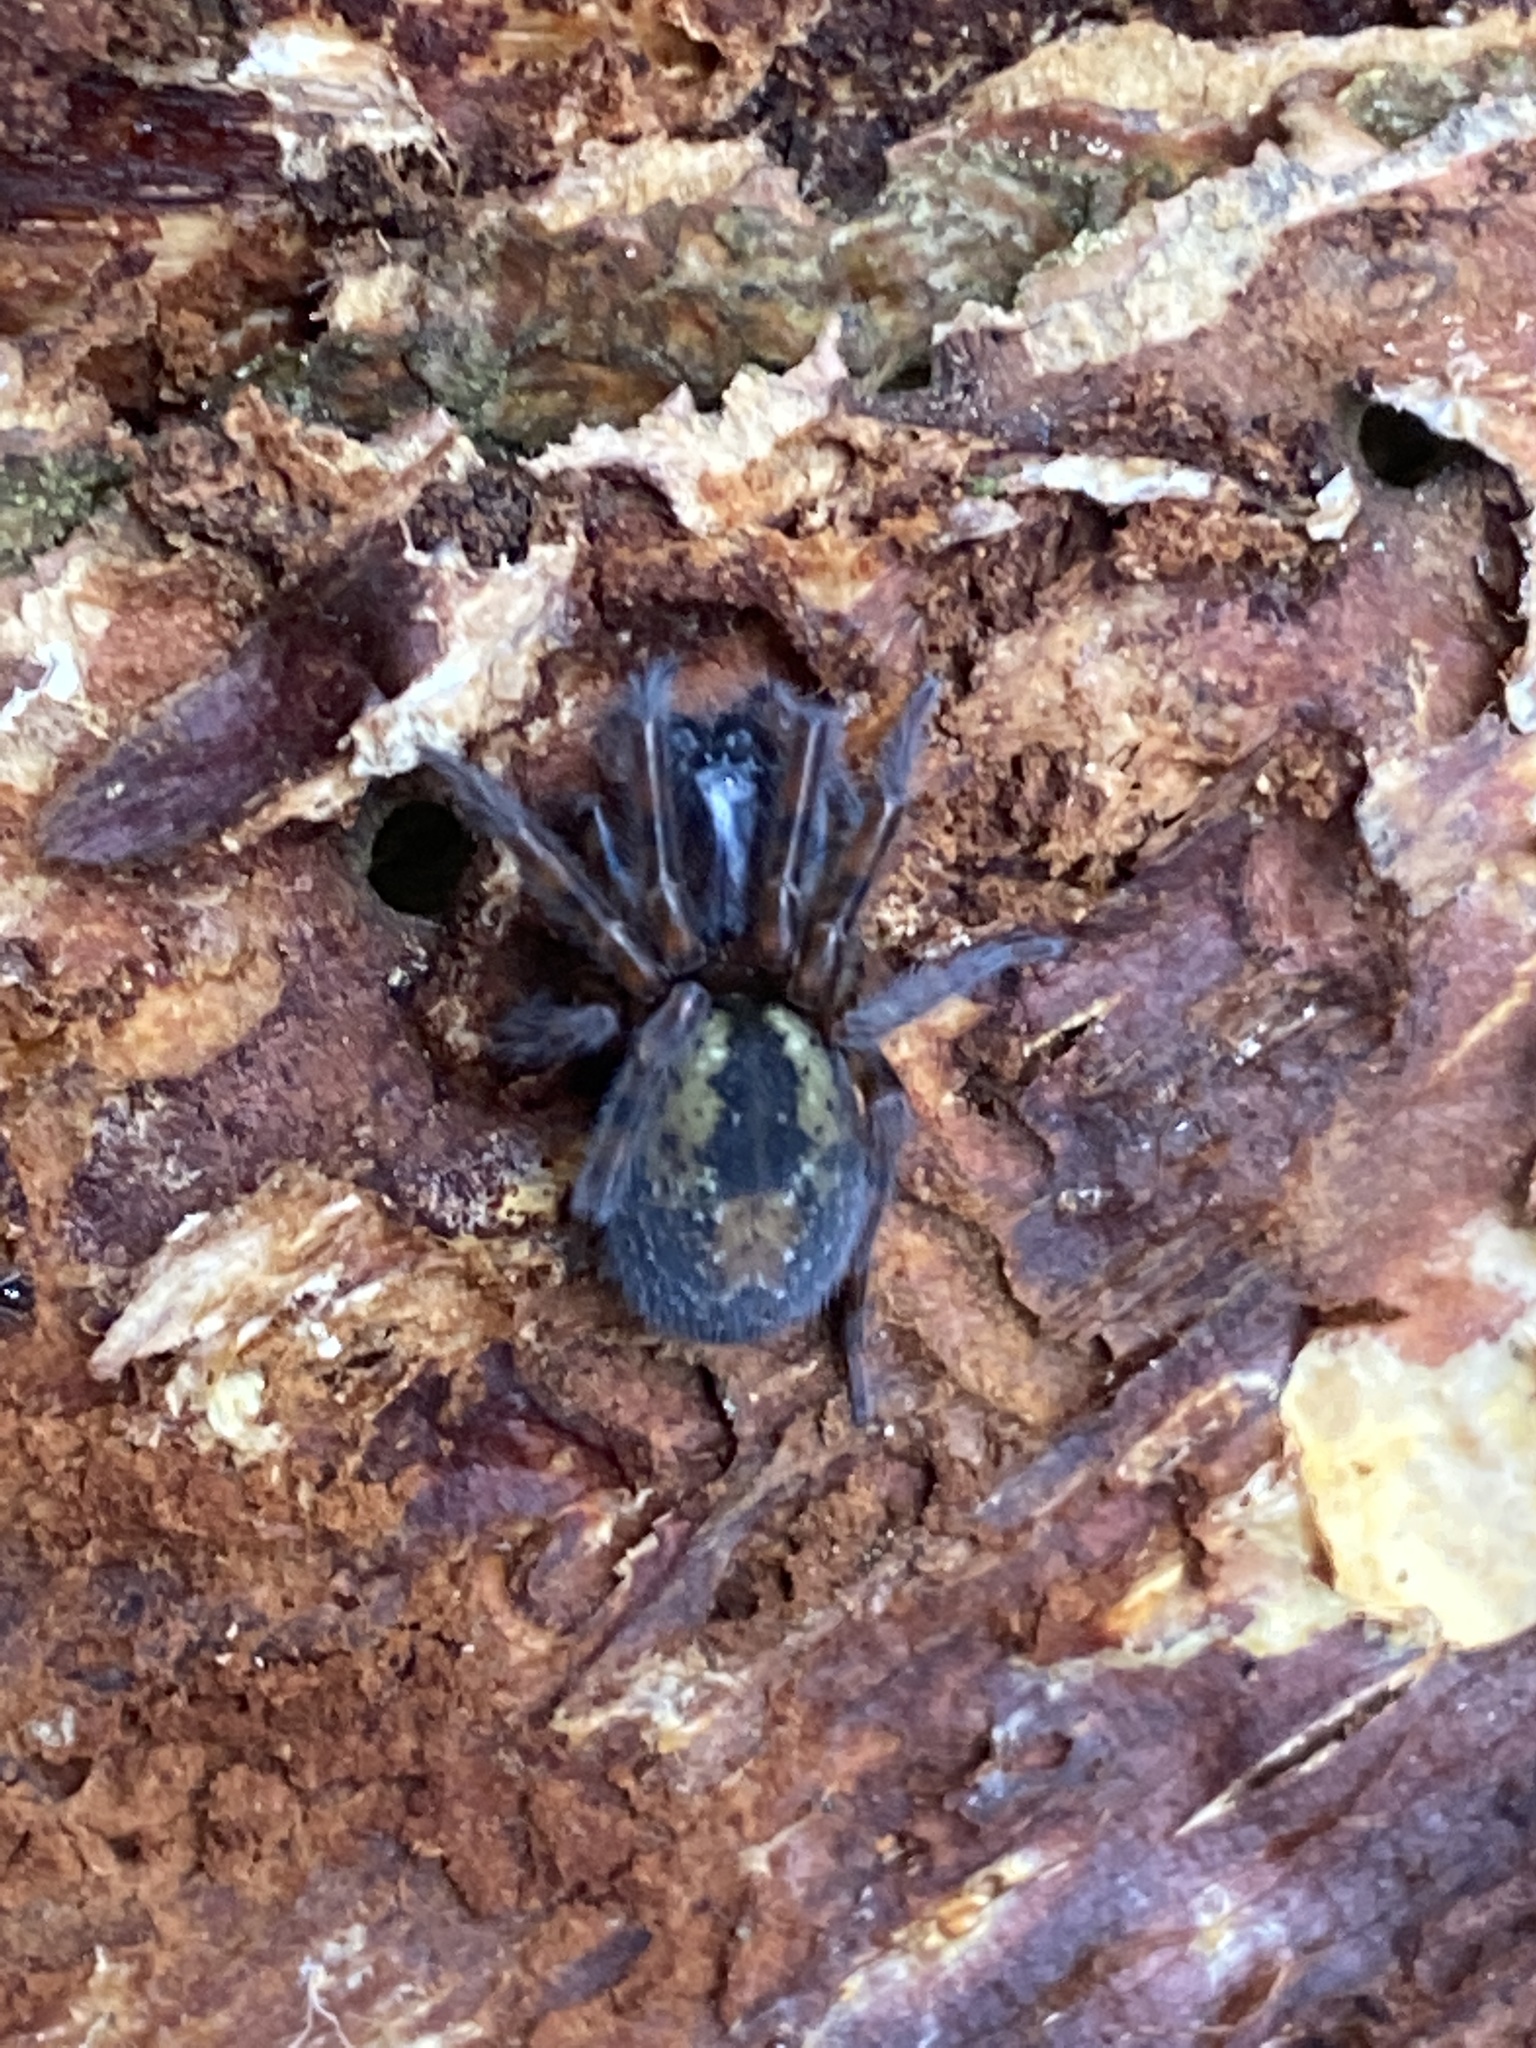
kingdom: Animalia
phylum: Arthropoda
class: Arachnida
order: Araneae
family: Amaurobiidae
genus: Amaurobius
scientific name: Amaurobius fenestralis
